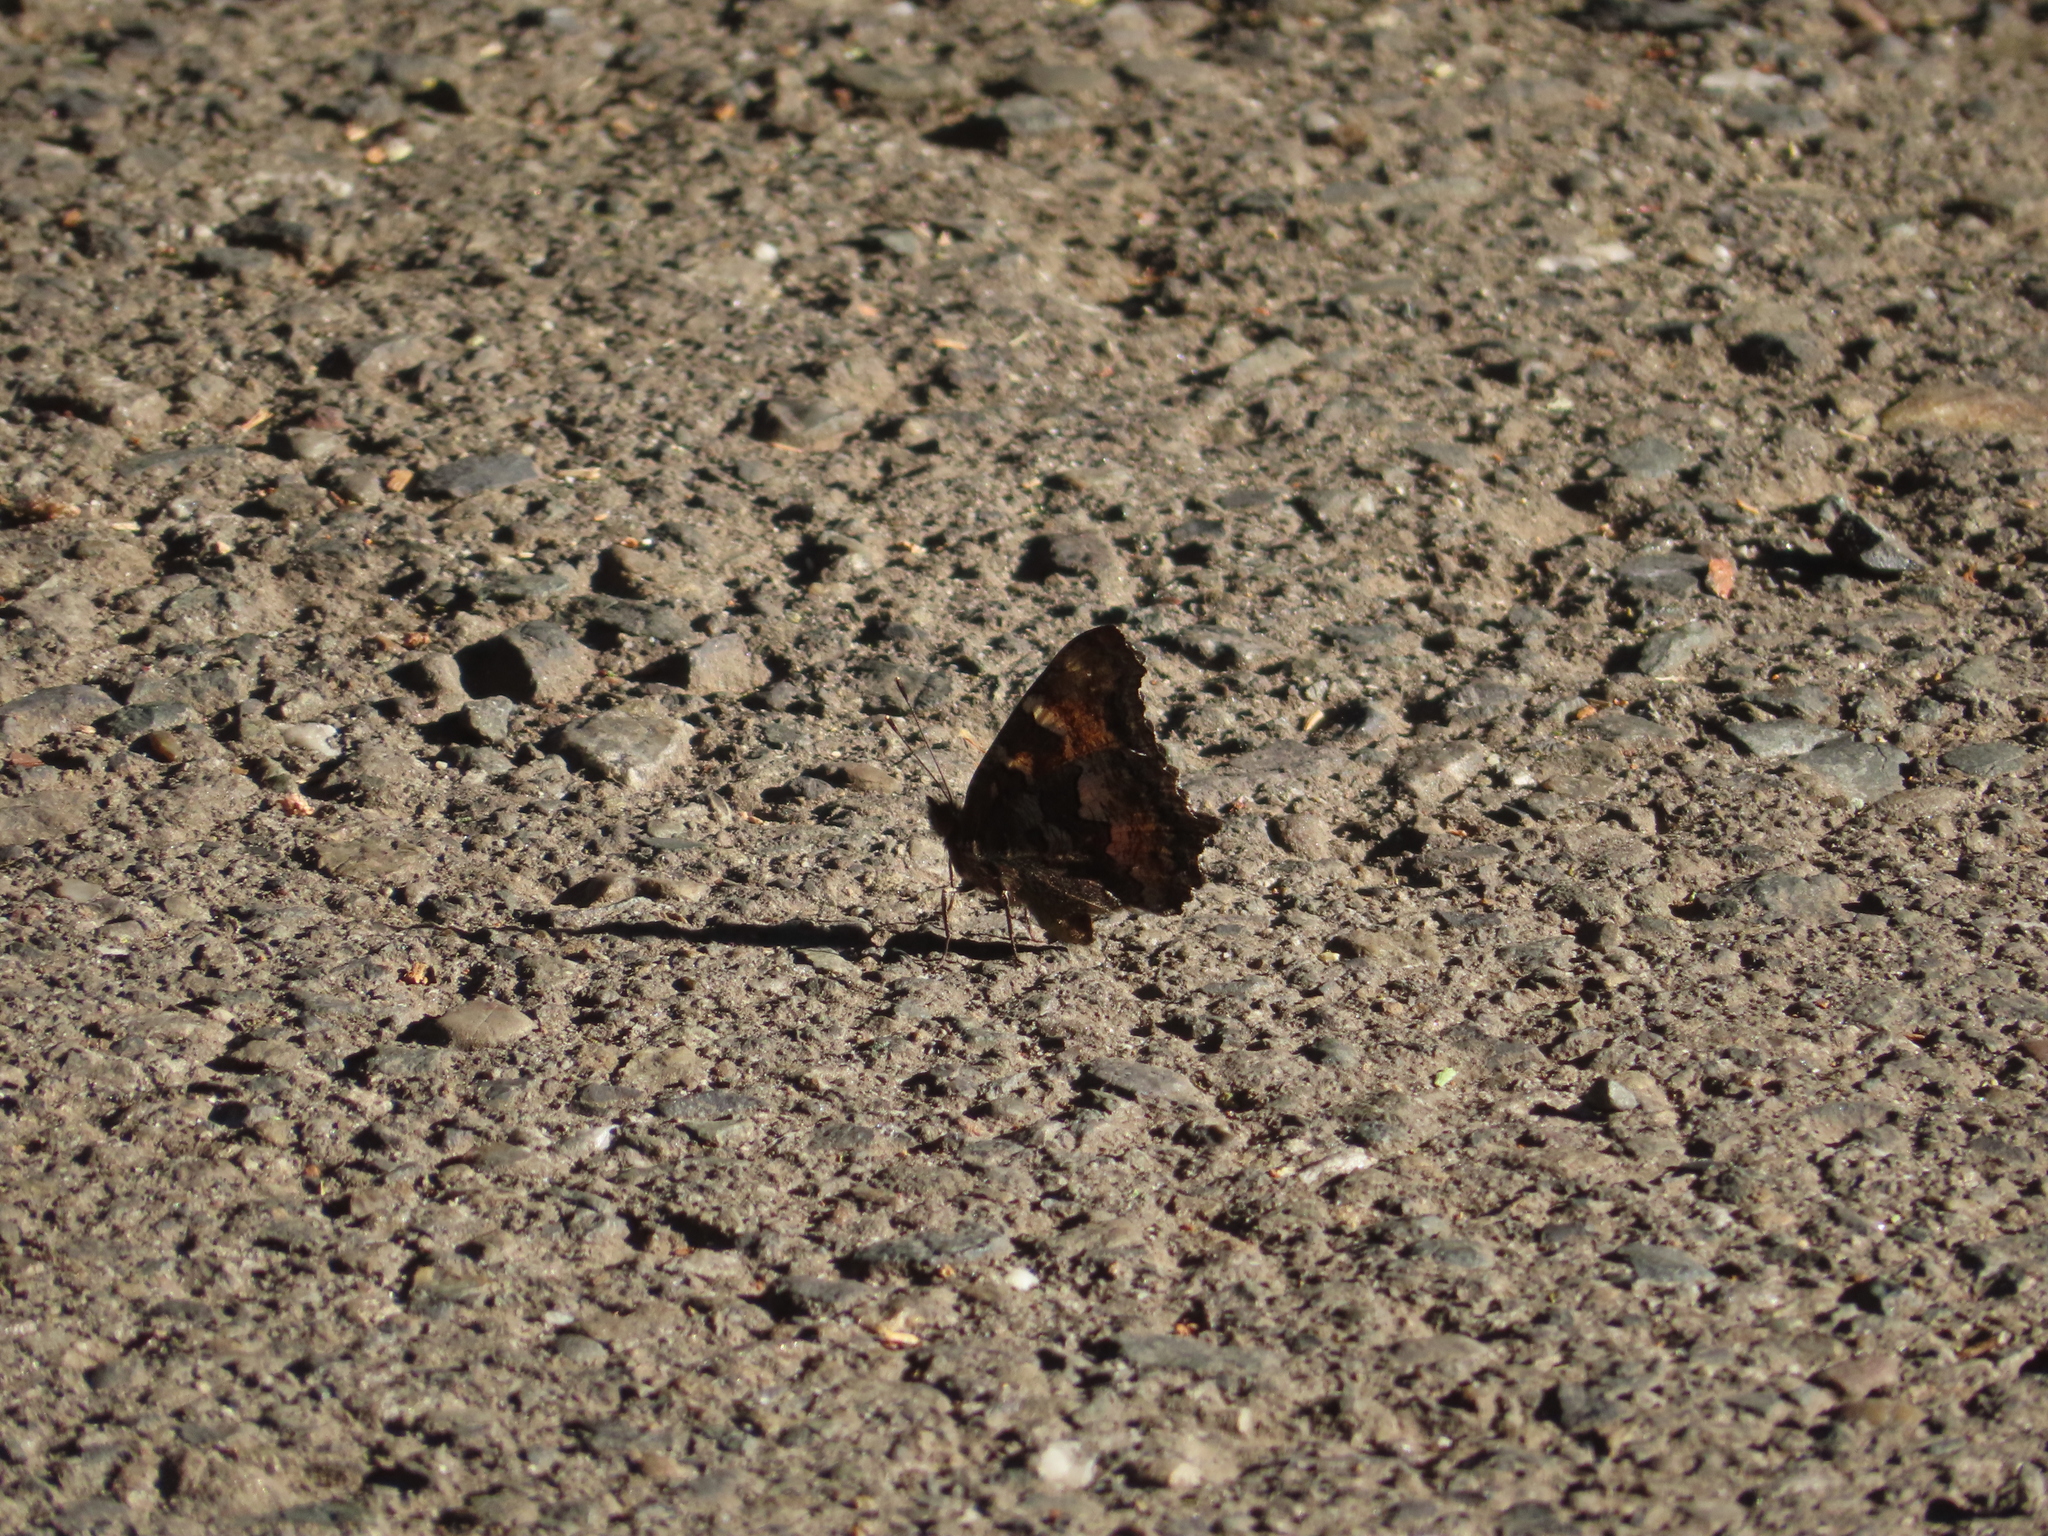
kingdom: Animalia
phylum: Arthropoda
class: Insecta
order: Lepidoptera
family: Nymphalidae
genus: Nymphalis
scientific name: Nymphalis californica
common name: California tortoiseshell
